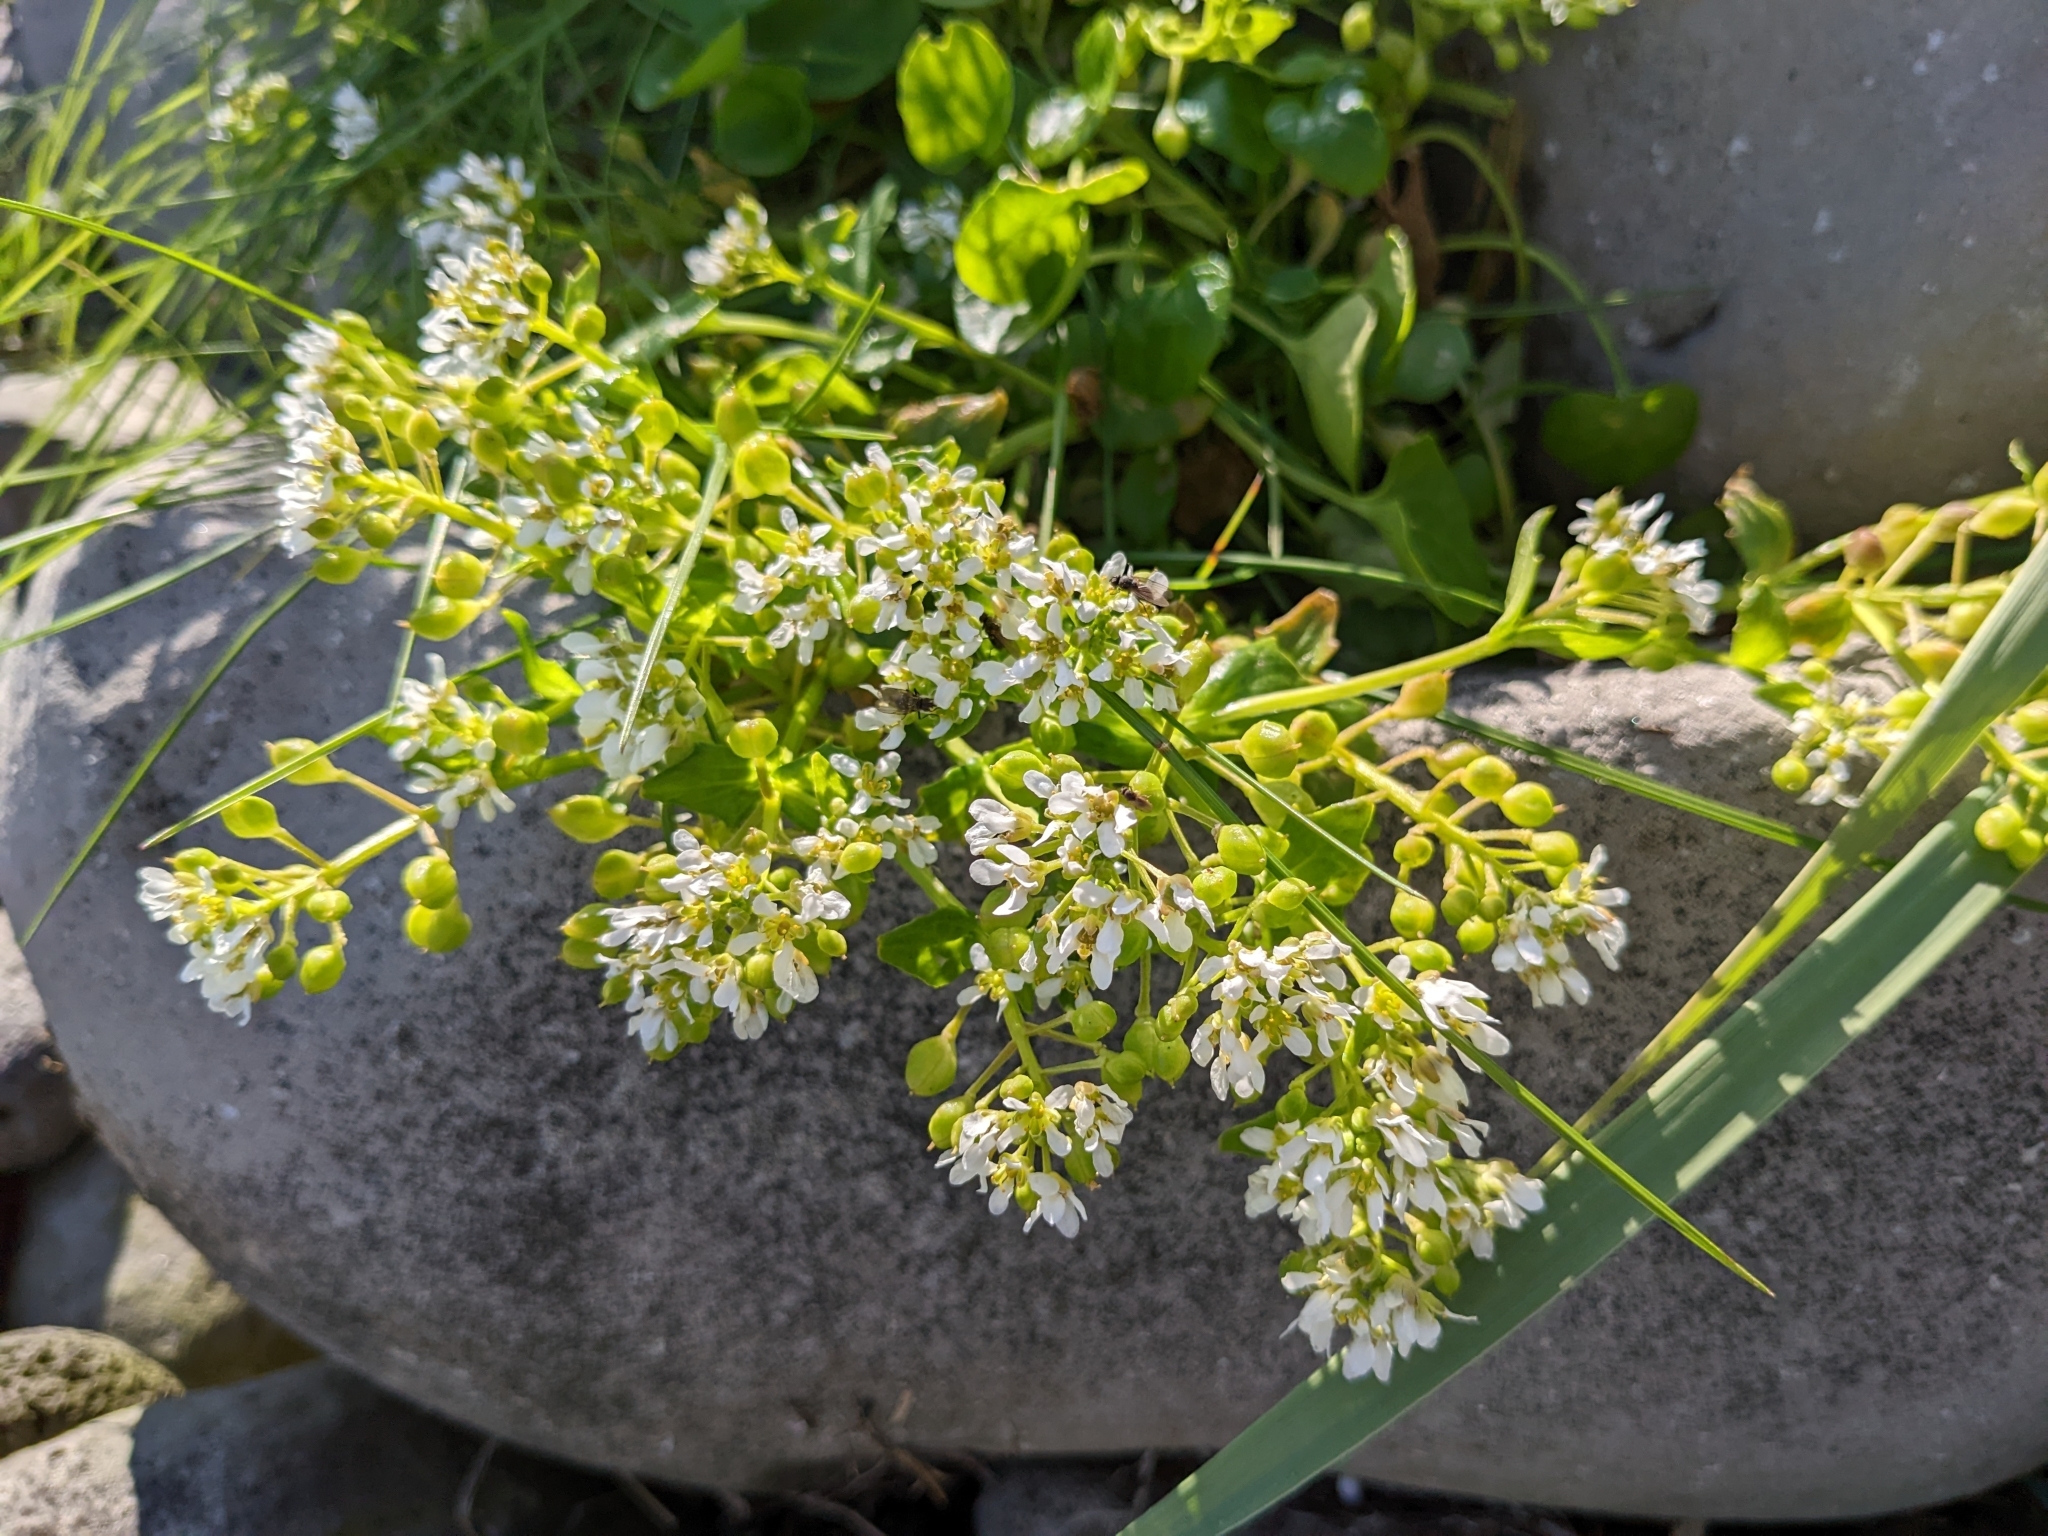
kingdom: Plantae
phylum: Tracheophyta
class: Magnoliopsida
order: Brassicales
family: Brassicaceae
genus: Cochlearia
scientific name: Cochlearia officinalis
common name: Scurvy-grass
